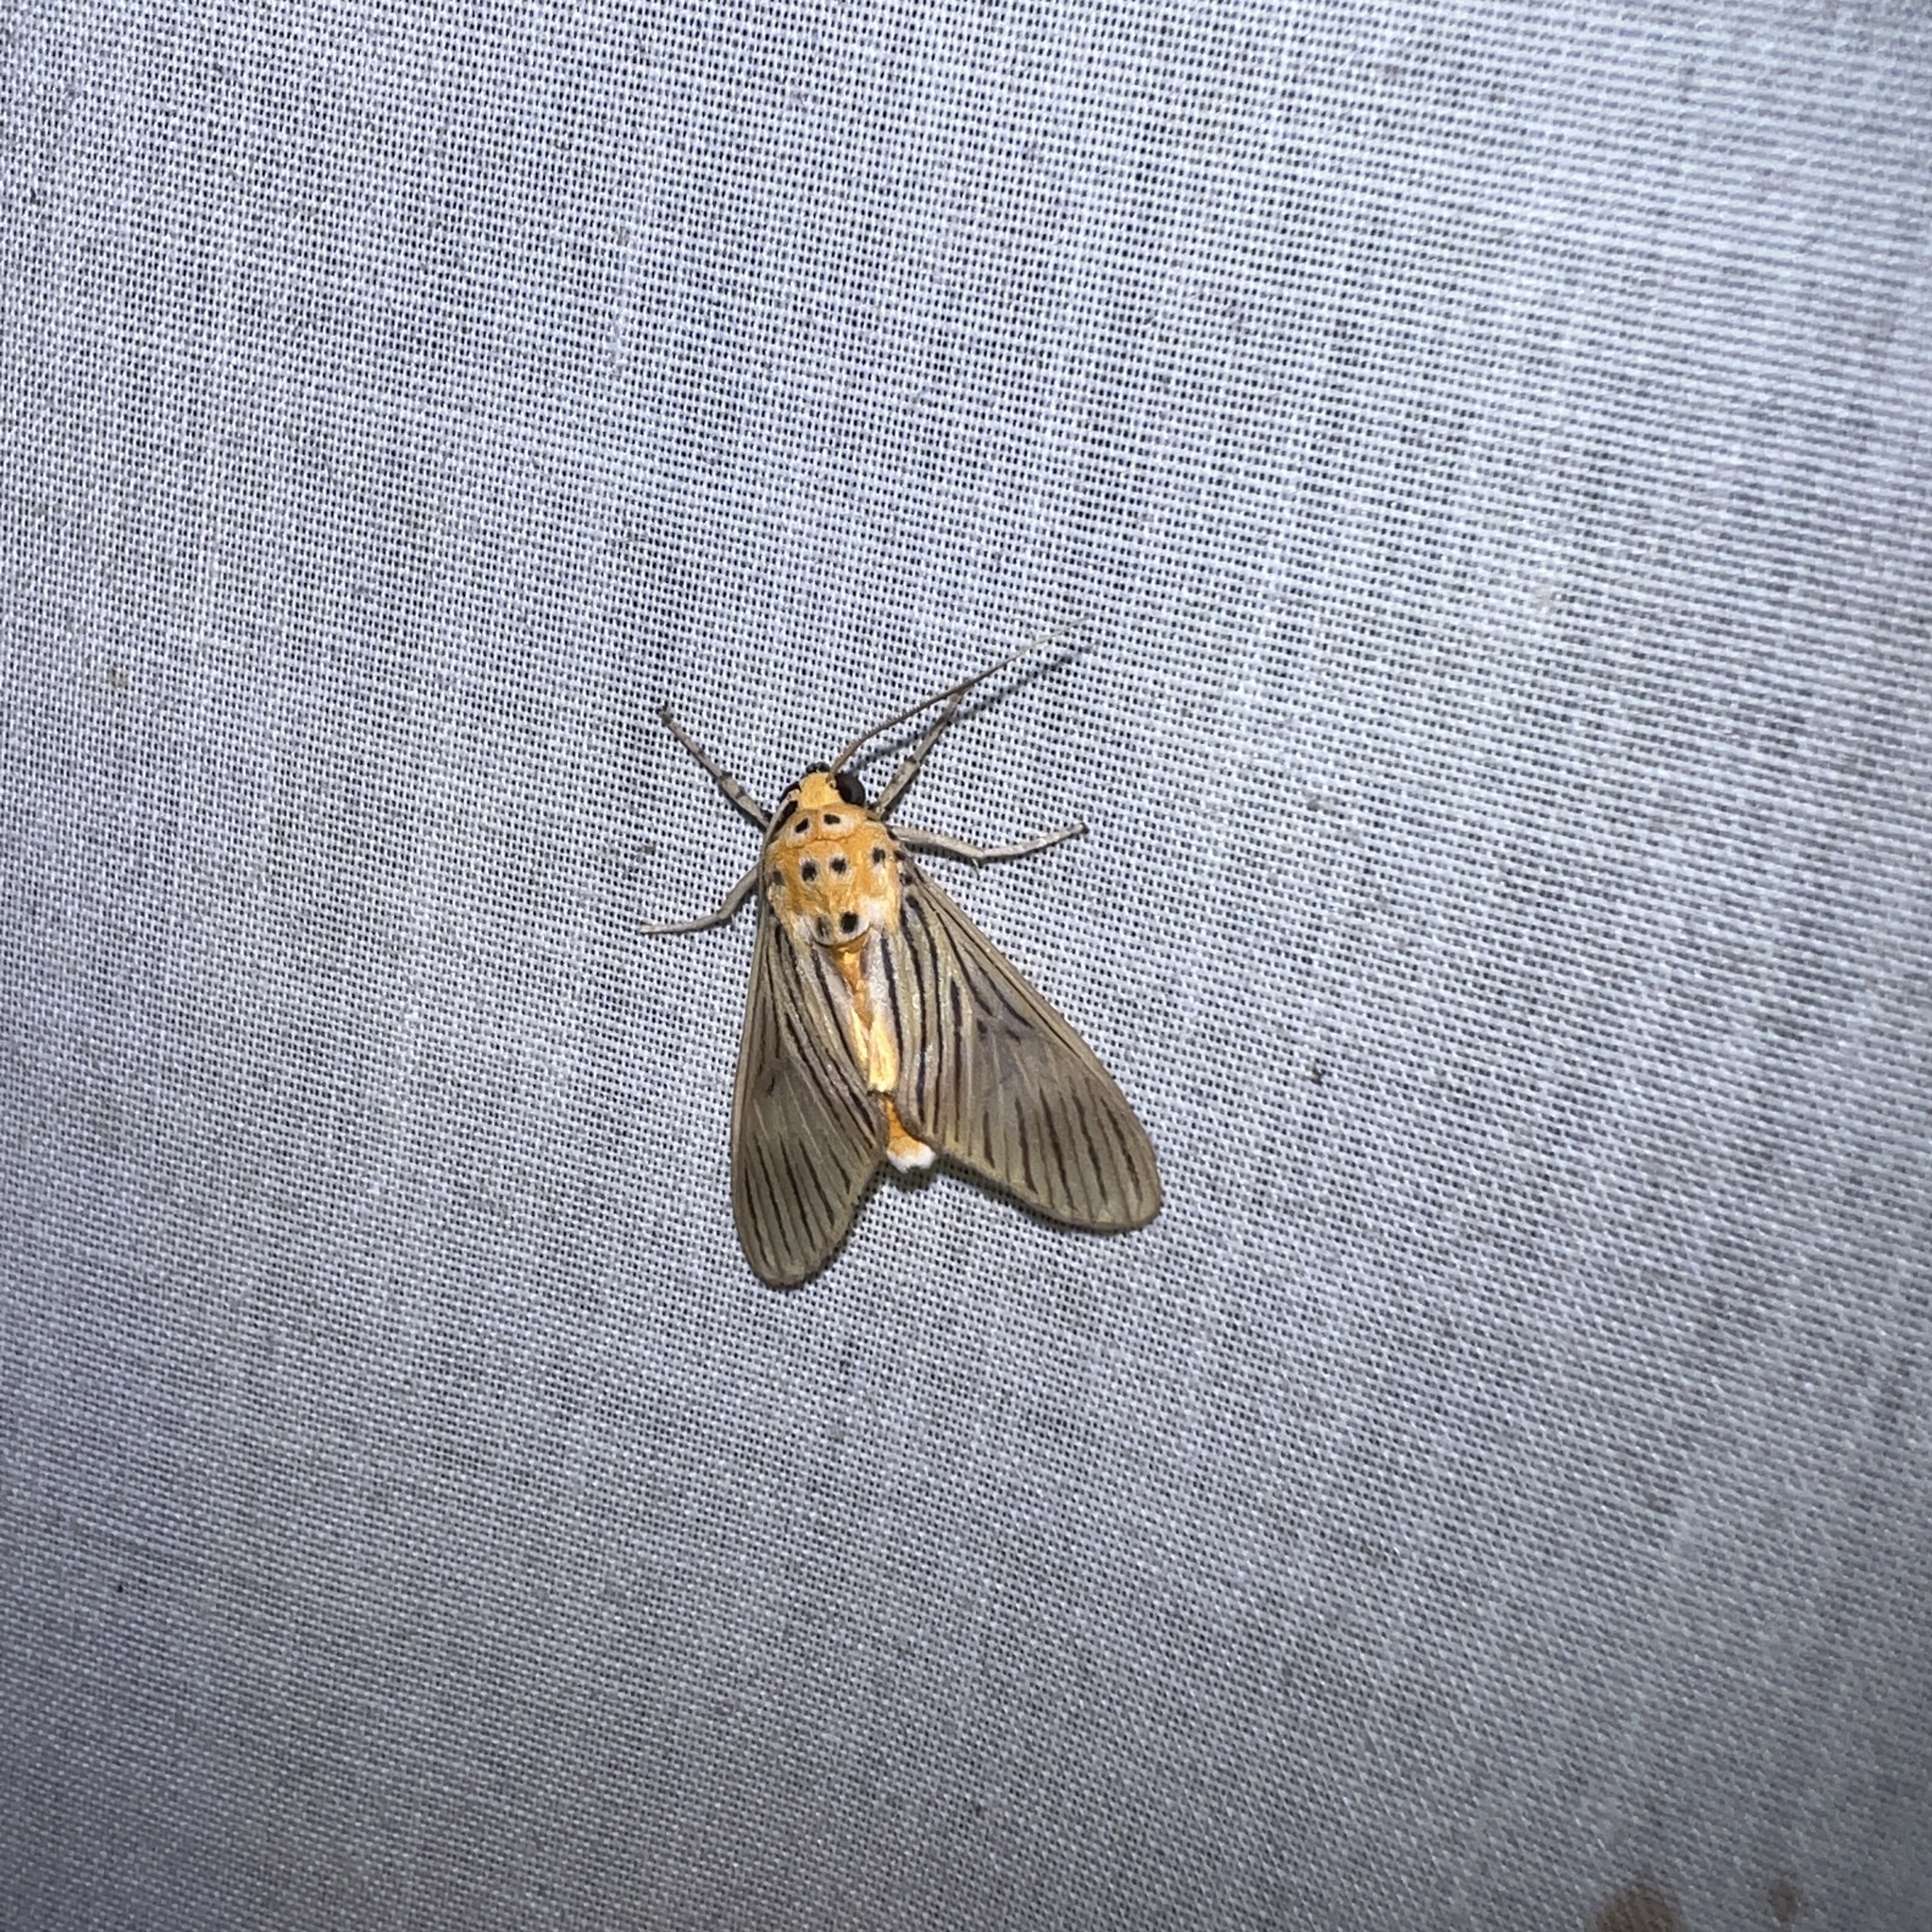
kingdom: Animalia
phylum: Arthropoda
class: Insecta
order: Lepidoptera
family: Erebidae
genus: Phaeomolis
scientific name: Phaeomolis lineatus
